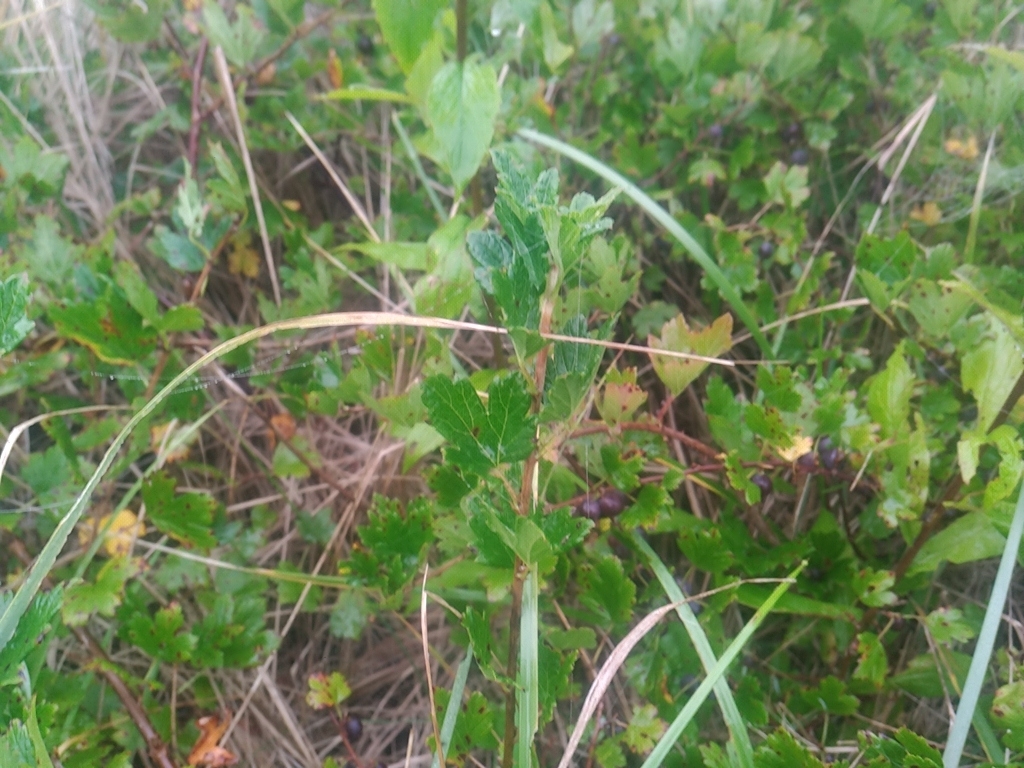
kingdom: Plantae
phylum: Tracheophyta
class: Magnoliopsida
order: Saxifragales
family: Grossulariaceae
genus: Ribes
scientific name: Ribes hirtellum
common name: Hairy gooseberry
